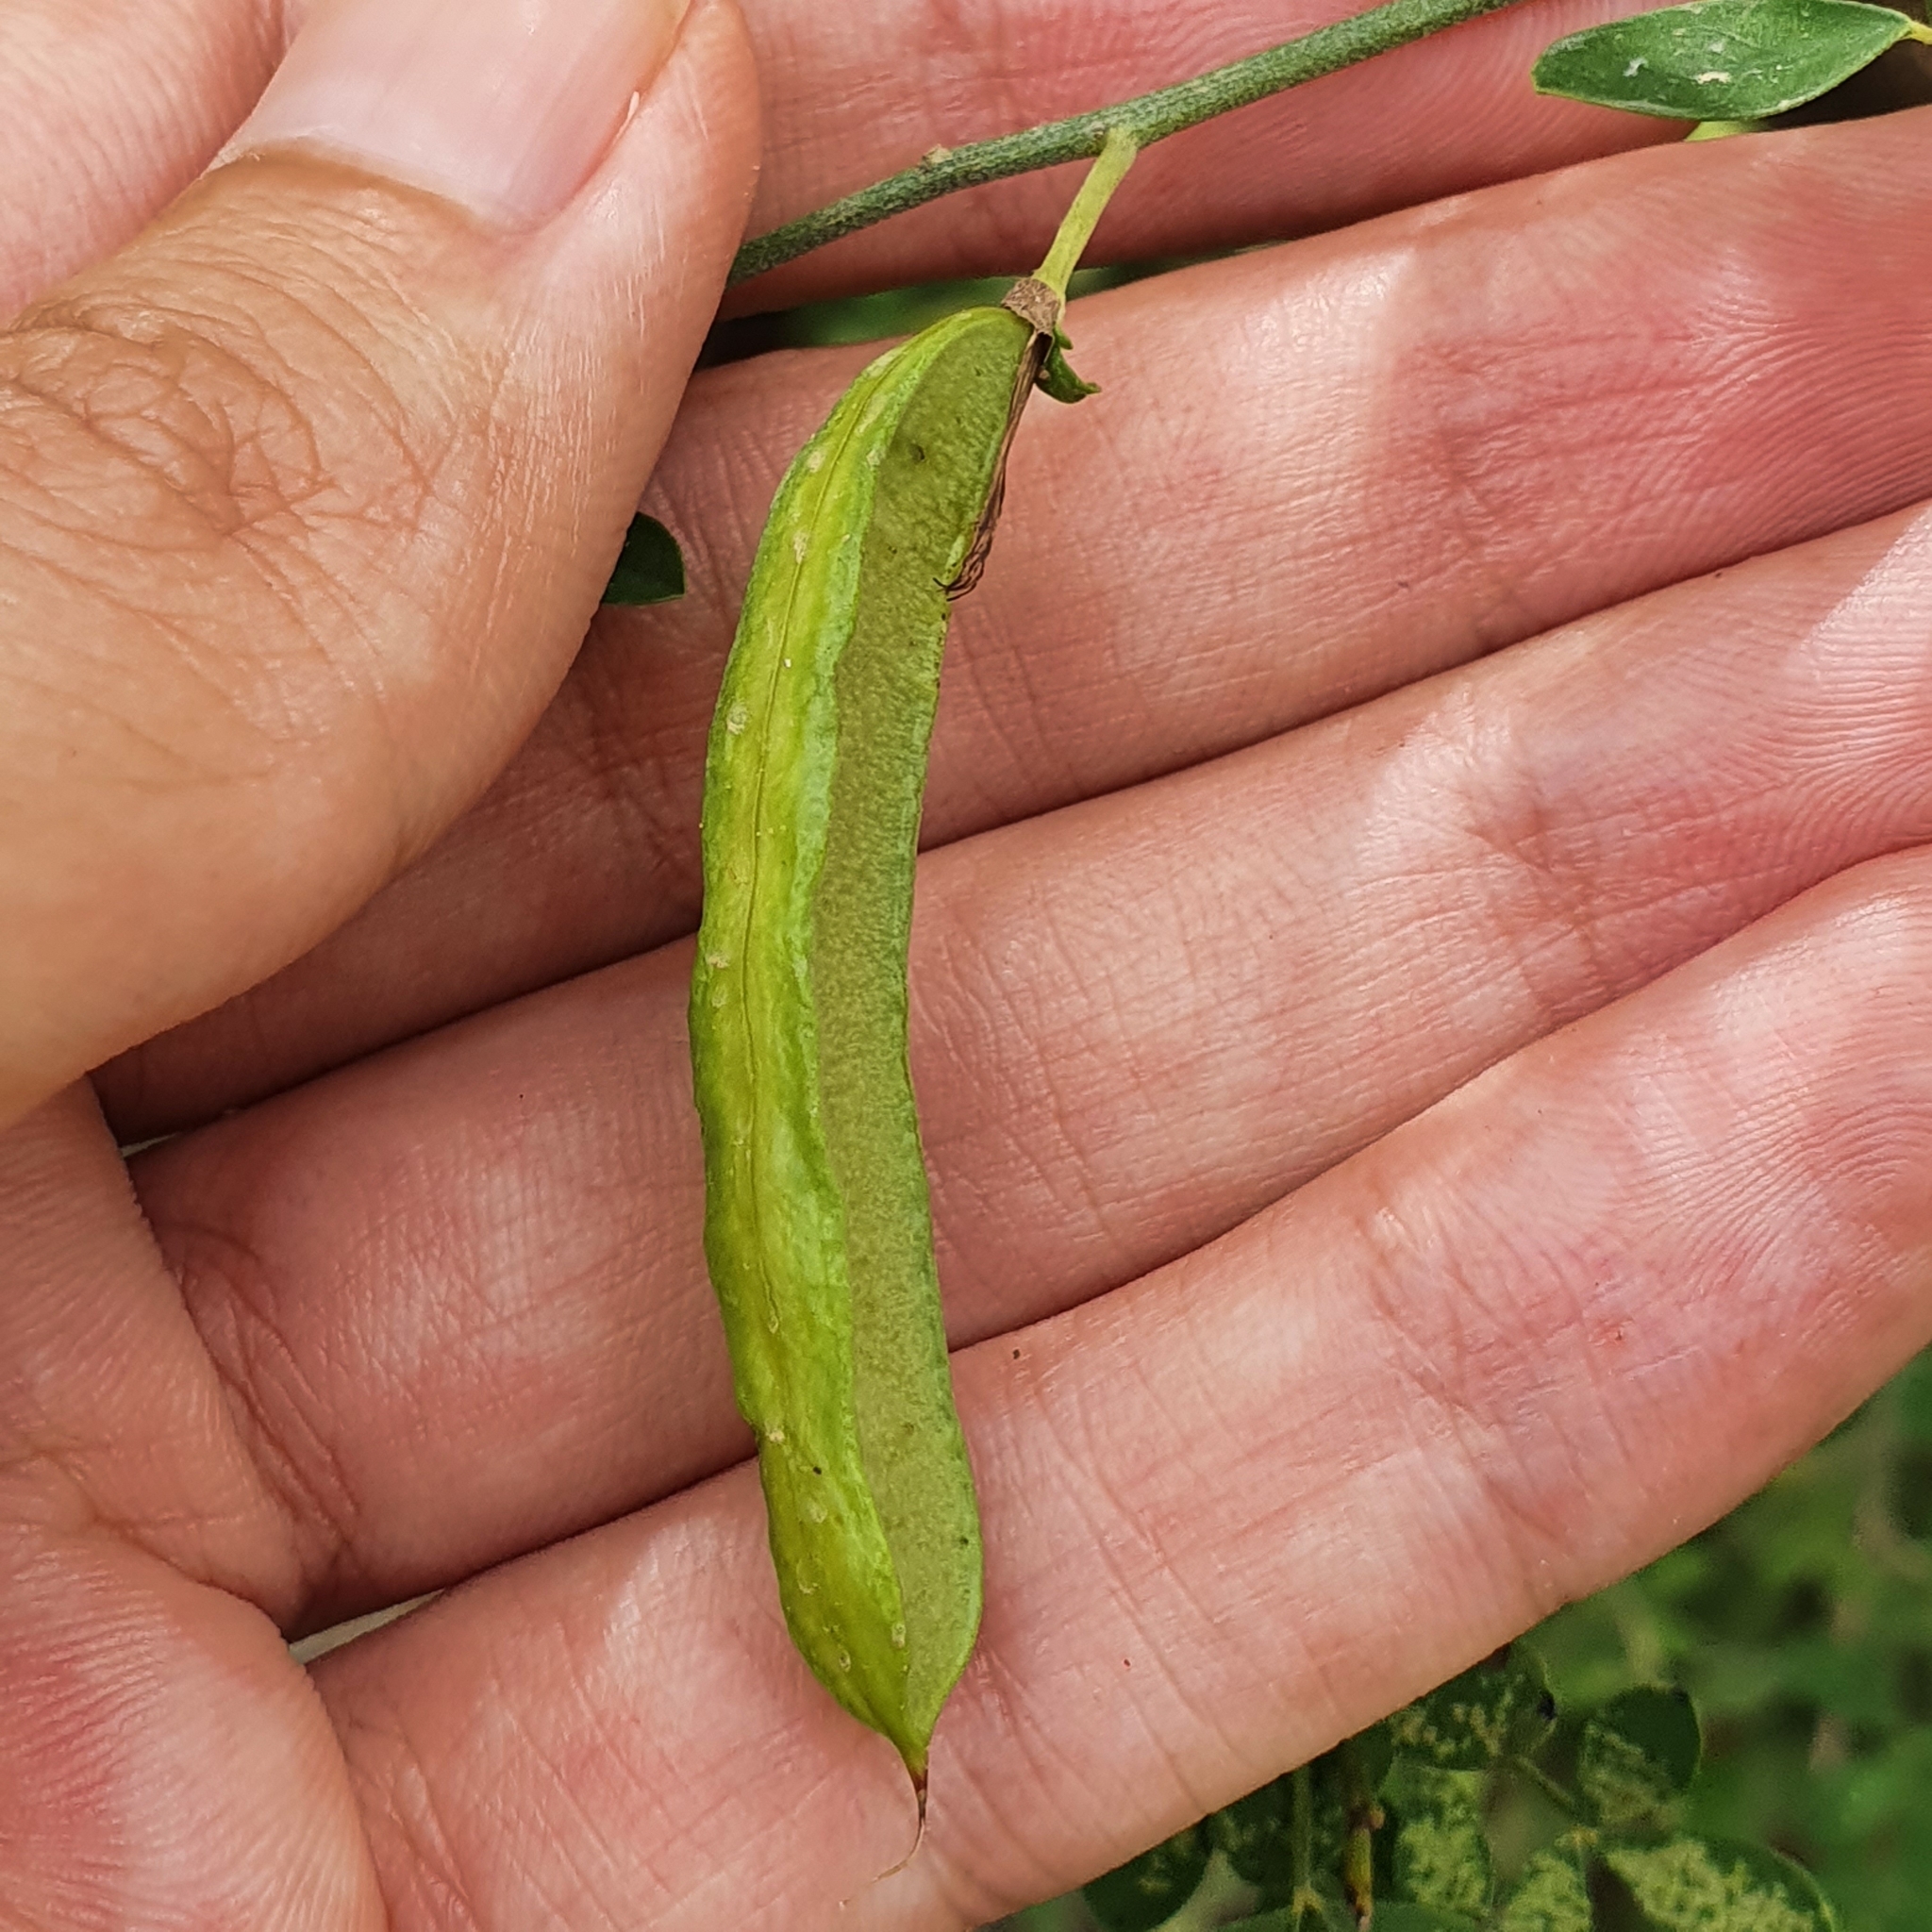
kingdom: Plantae
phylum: Tracheophyta
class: Magnoliopsida
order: Fabales
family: Fabaceae
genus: Calicotome
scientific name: Calicotome spinosa
